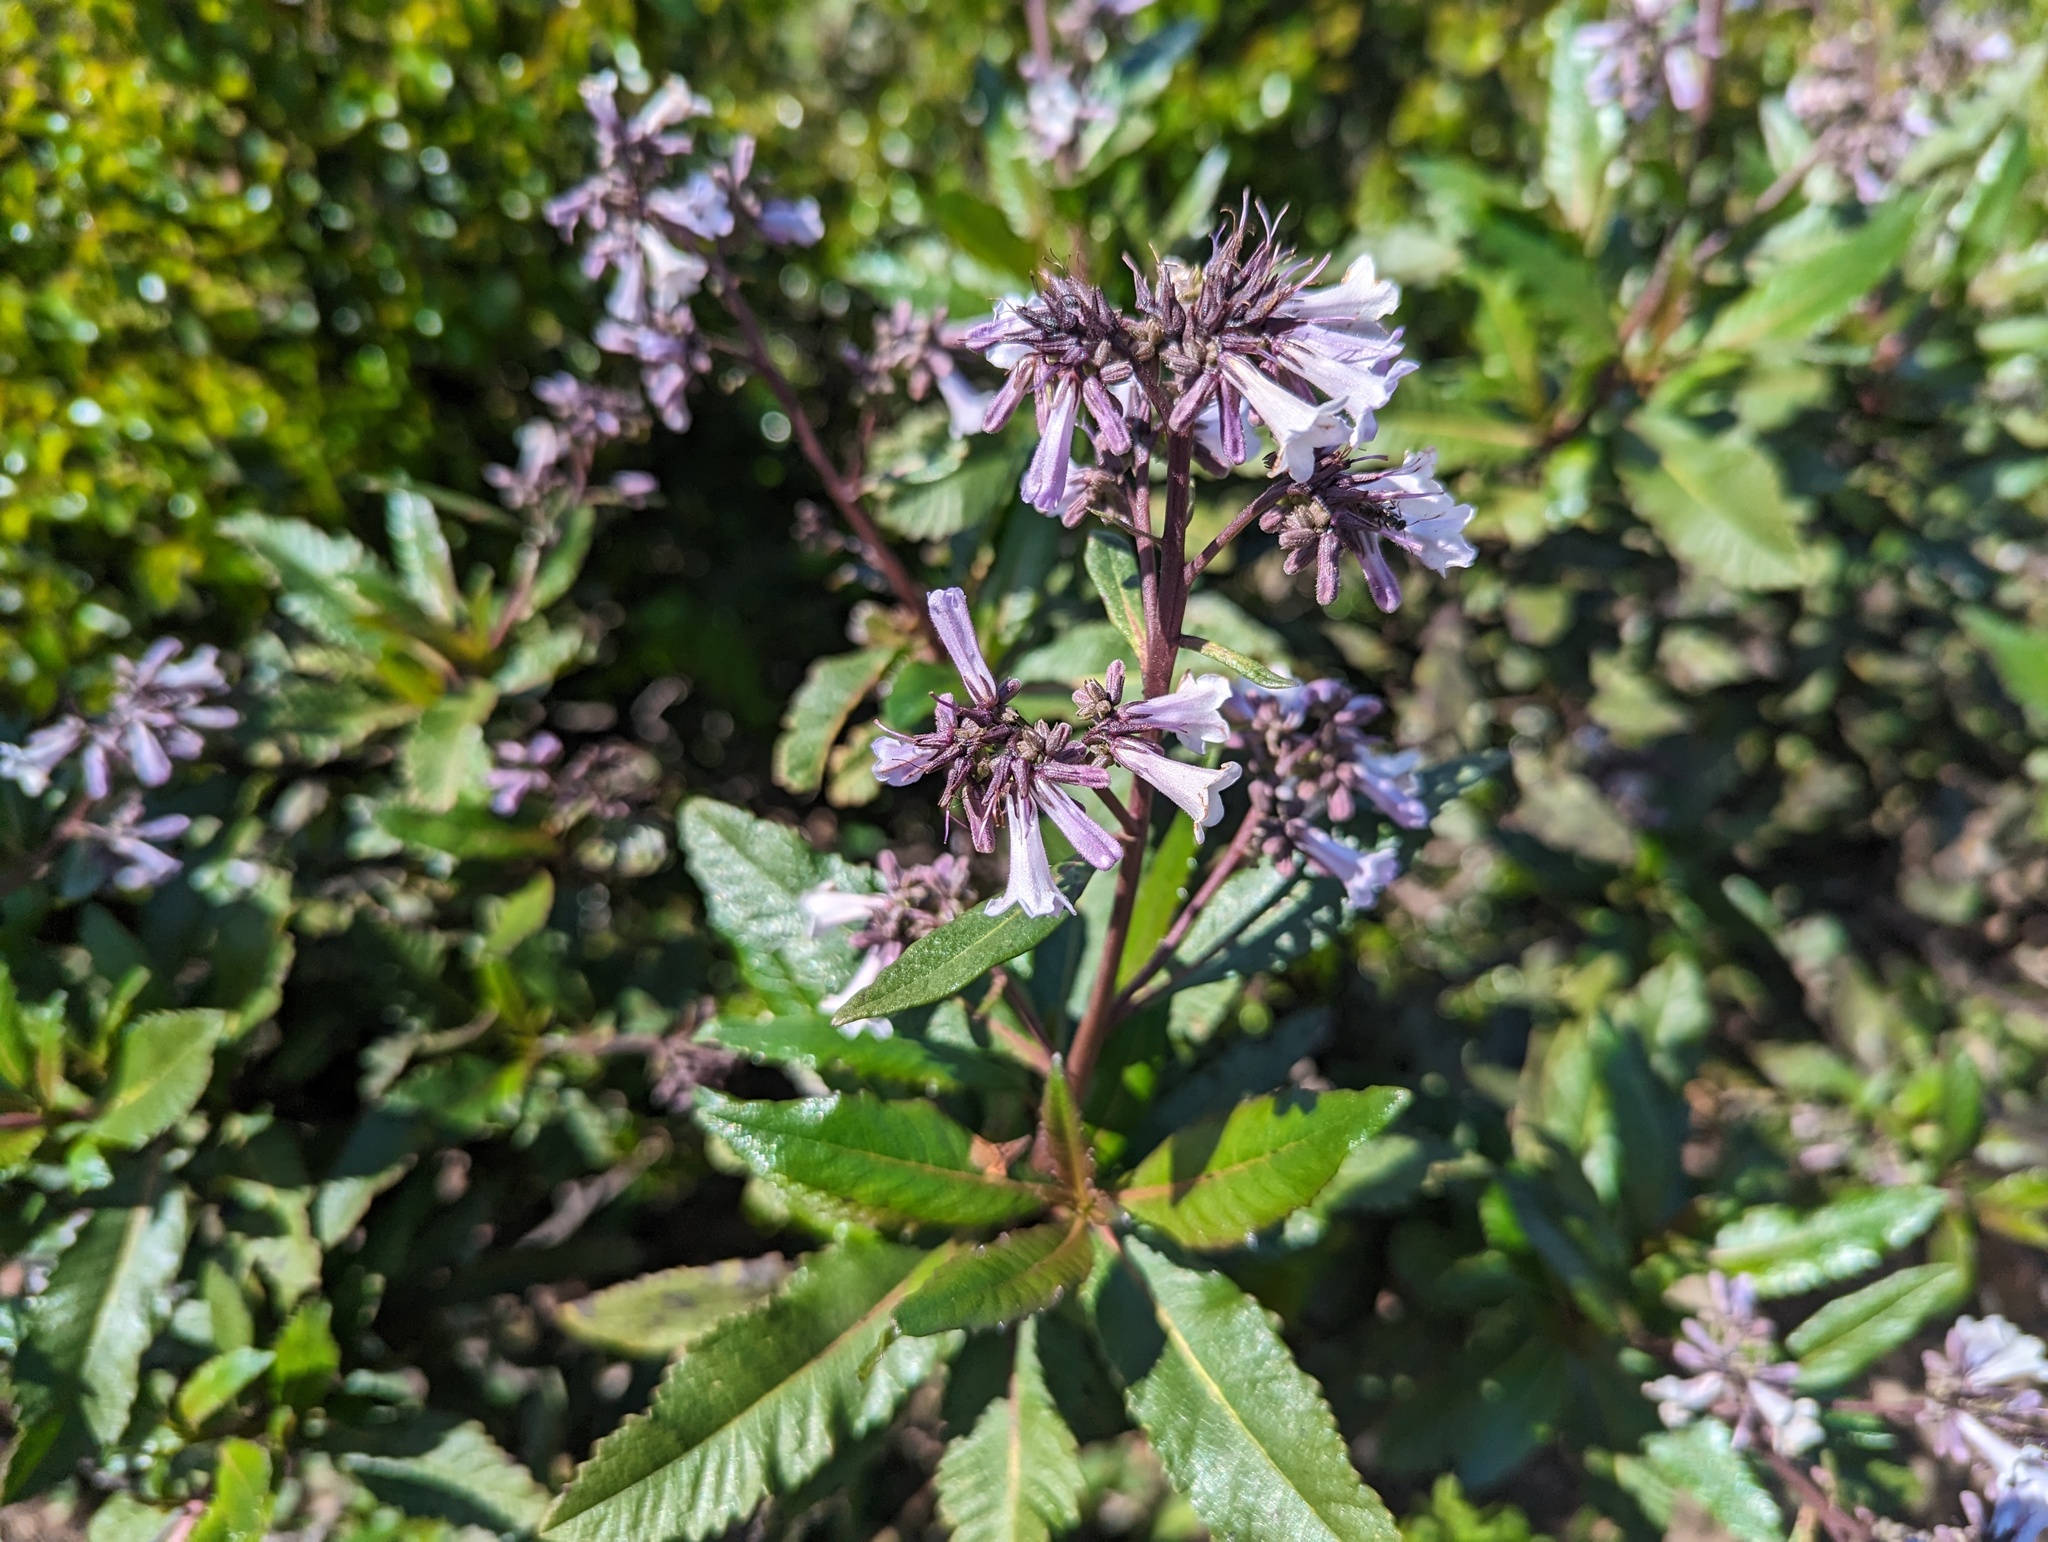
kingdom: Plantae
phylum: Tracheophyta
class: Magnoliopsida
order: Boraginales
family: Namaceae
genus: Eriodictyon
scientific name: Eriodictyon californicum
